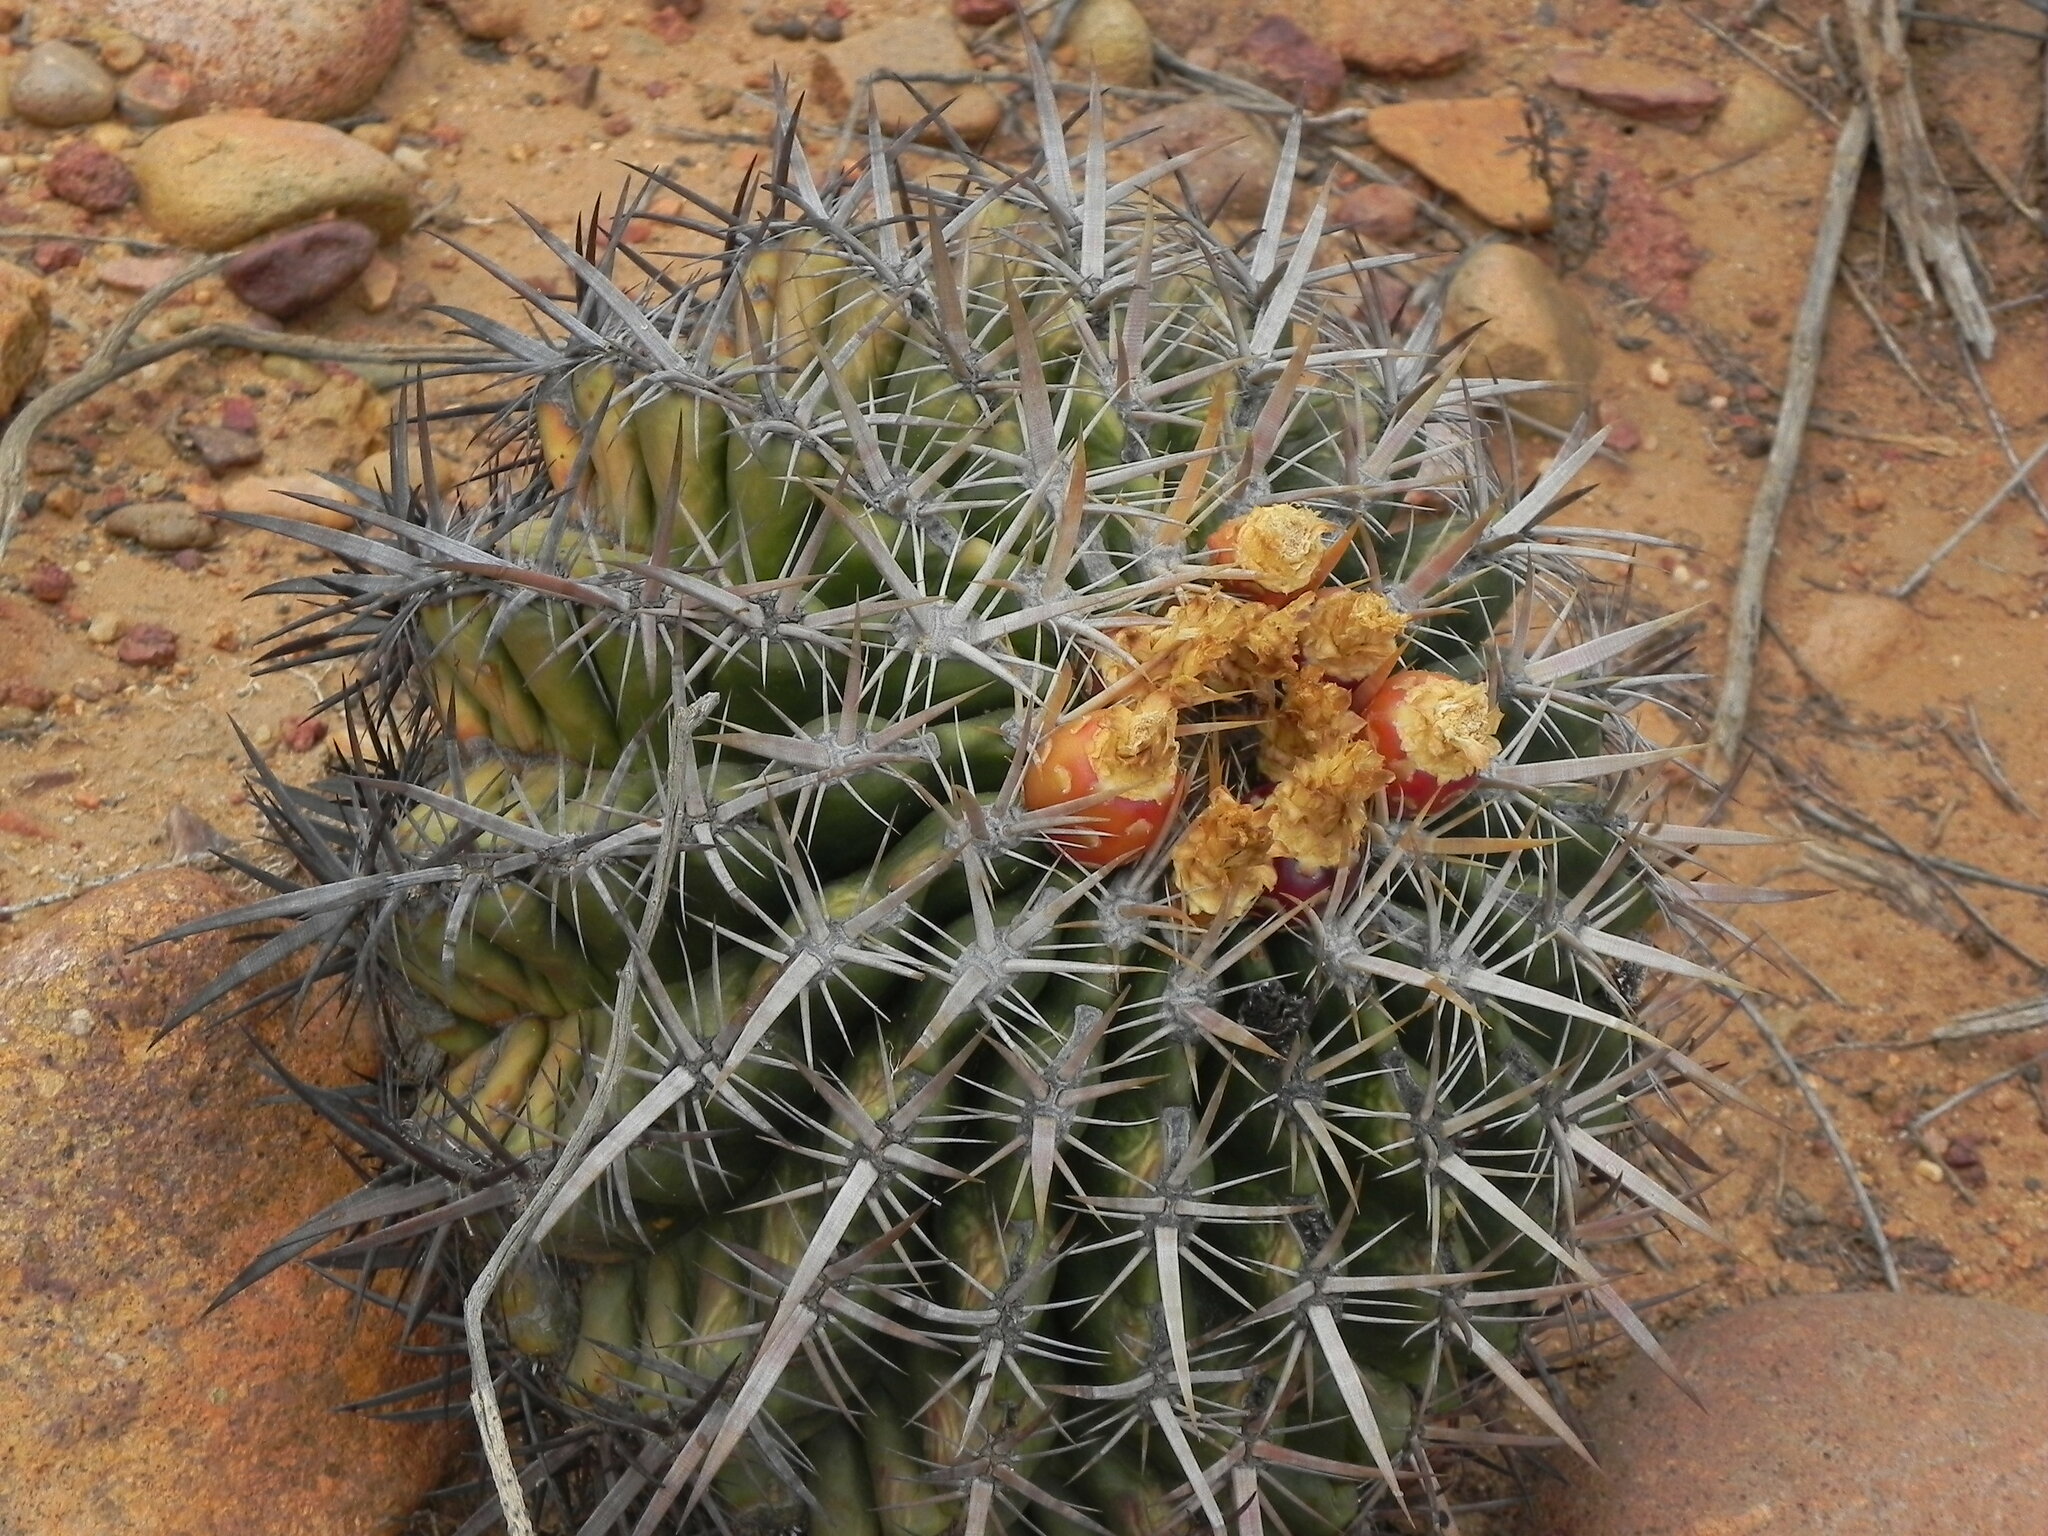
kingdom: Plantae
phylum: Tracheophyta
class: Magnoliopsida
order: Caryophyllales
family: Cactaceae
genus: Ferocactus
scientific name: Ferocactus viridescens
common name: San diego barrel cactus
